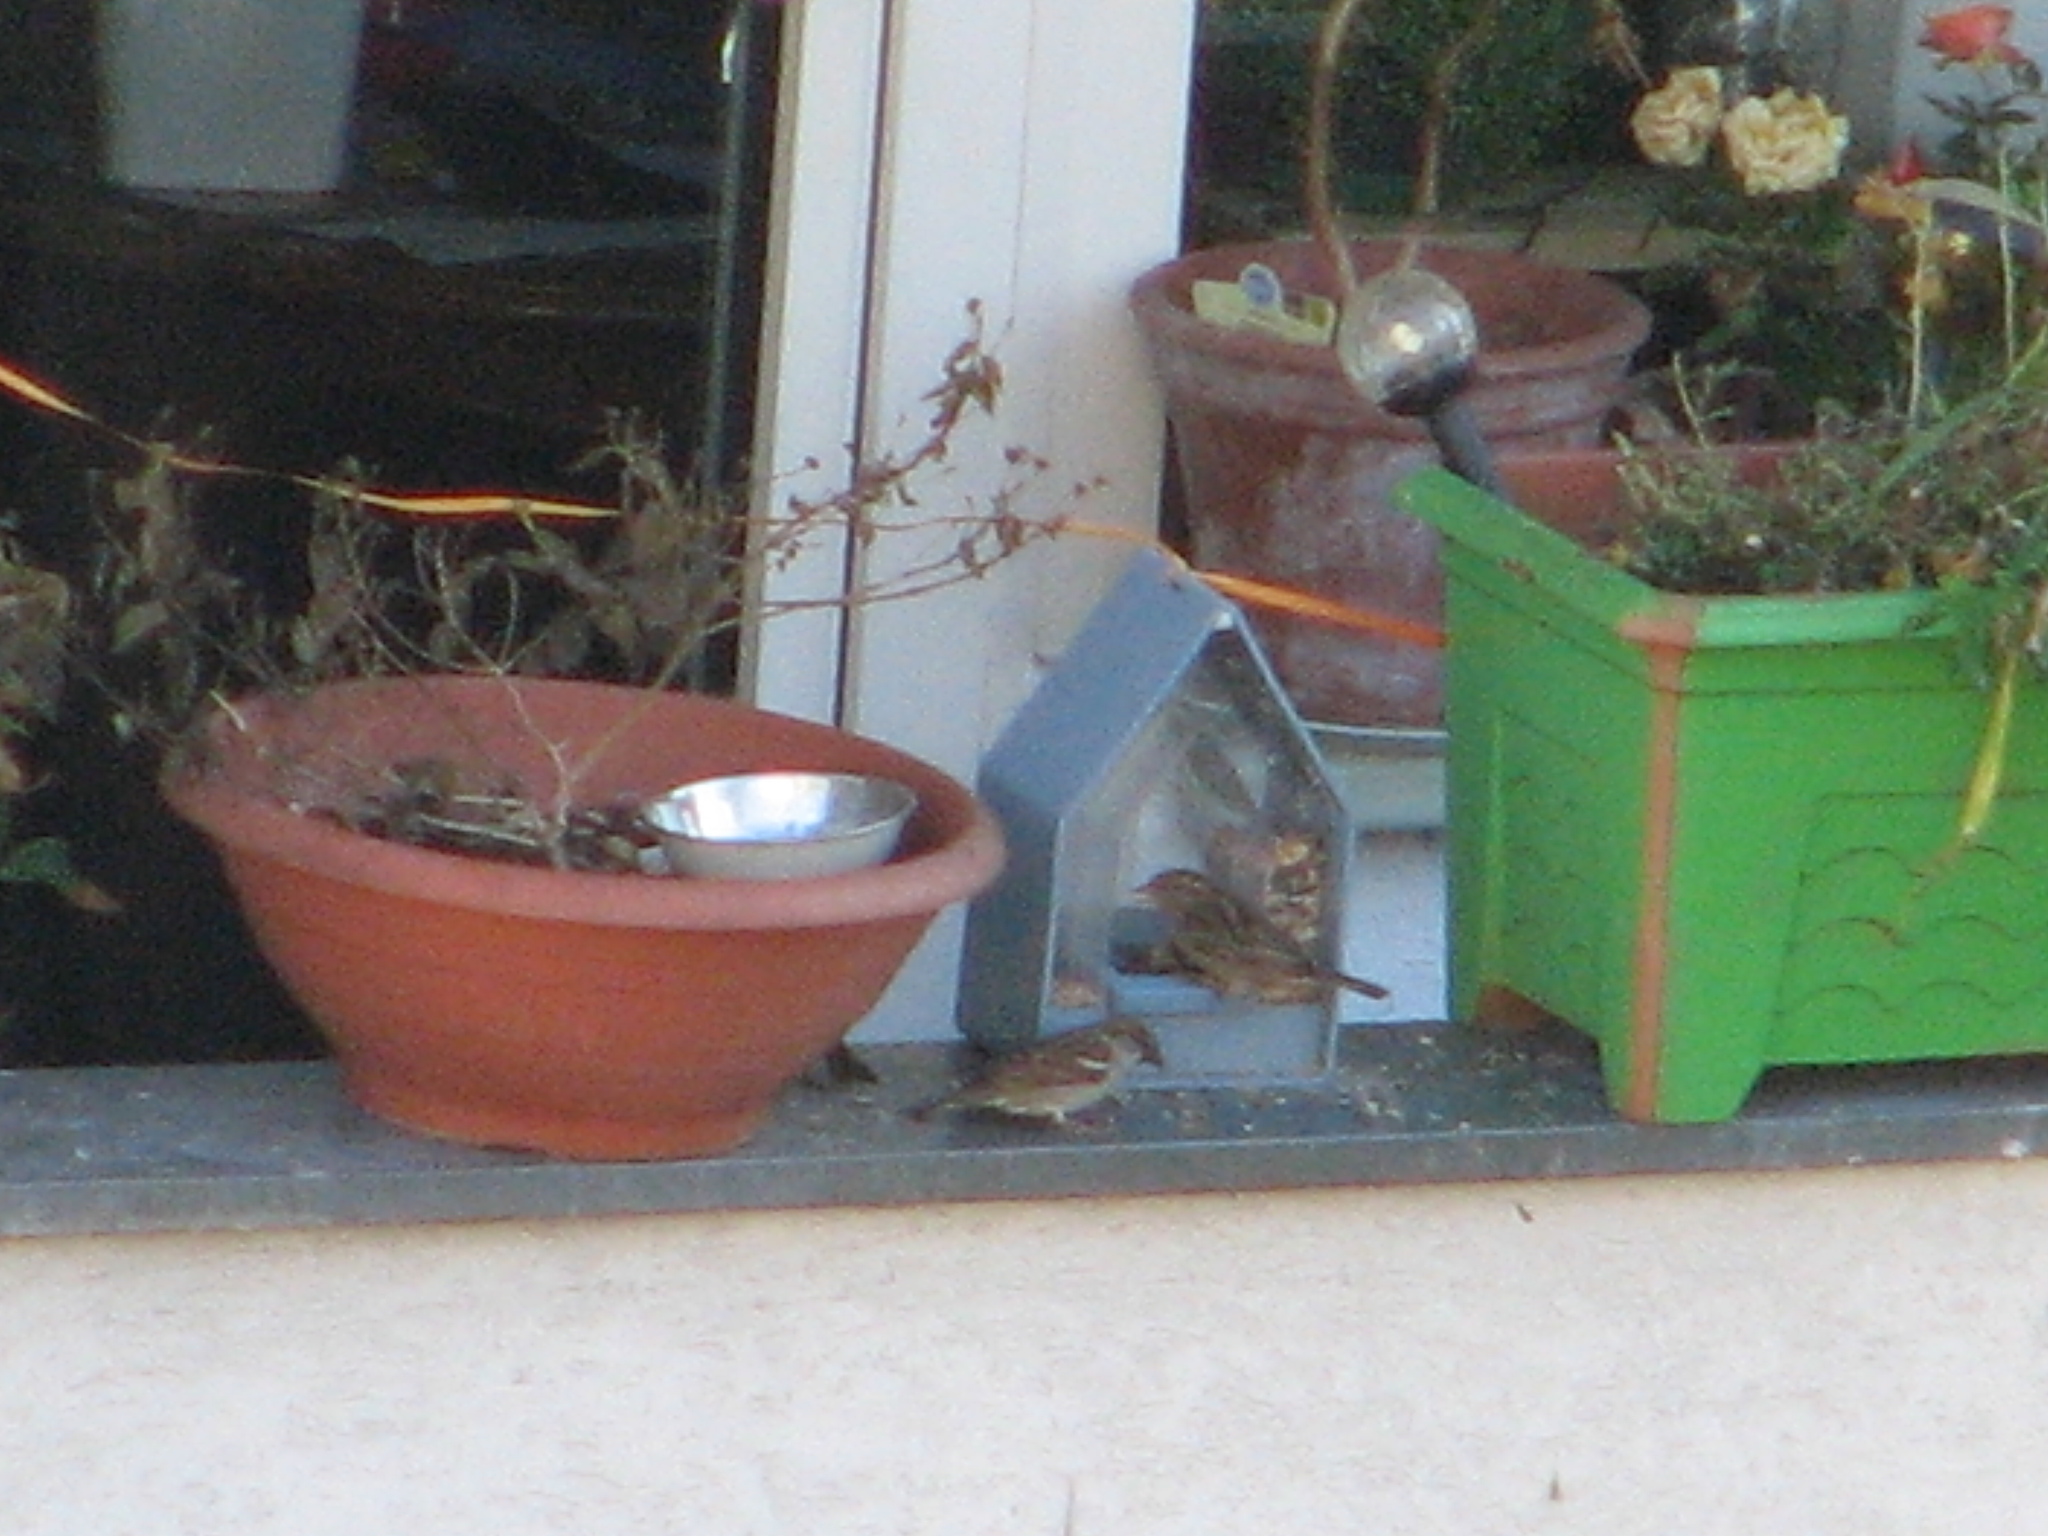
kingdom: Animalia
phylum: Chordata
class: Aves
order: Passeriformes
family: Passeridae
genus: Passer
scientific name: Passer domesticus
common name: House sparrow
